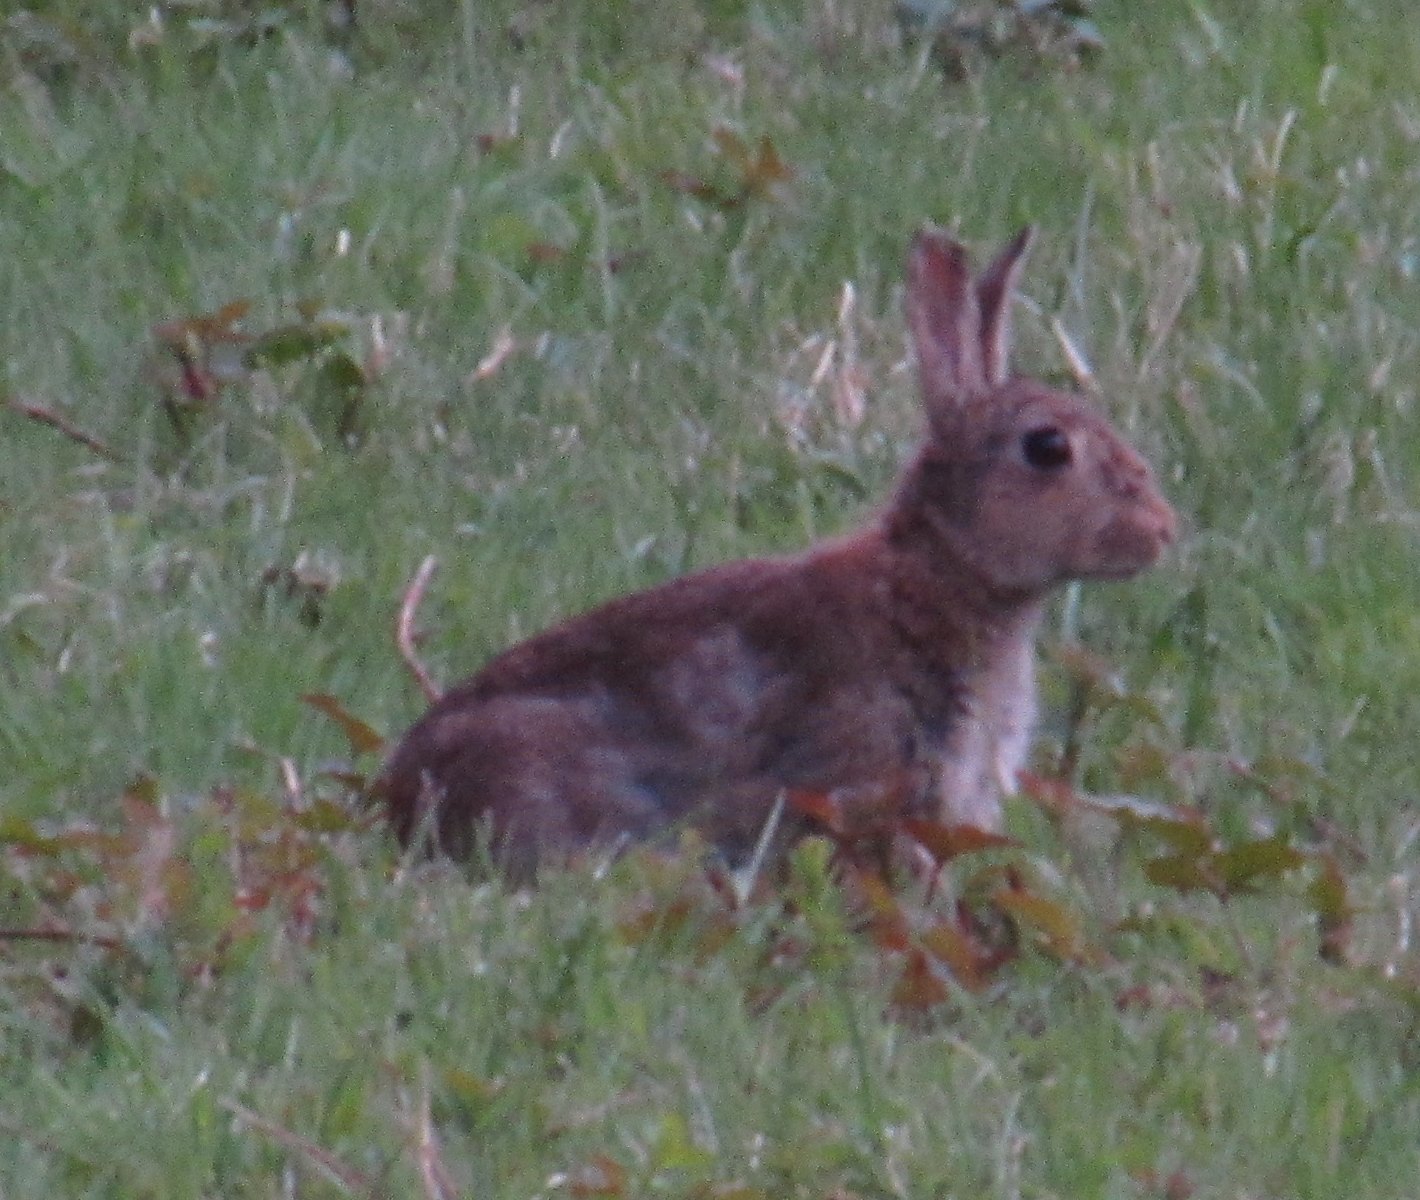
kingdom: Animalia
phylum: Chordata
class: Mammalia
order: Lagomorpha
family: Leporidae
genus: Oryctolagus
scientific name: Oryctolagus cuniculus
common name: European rabbit
